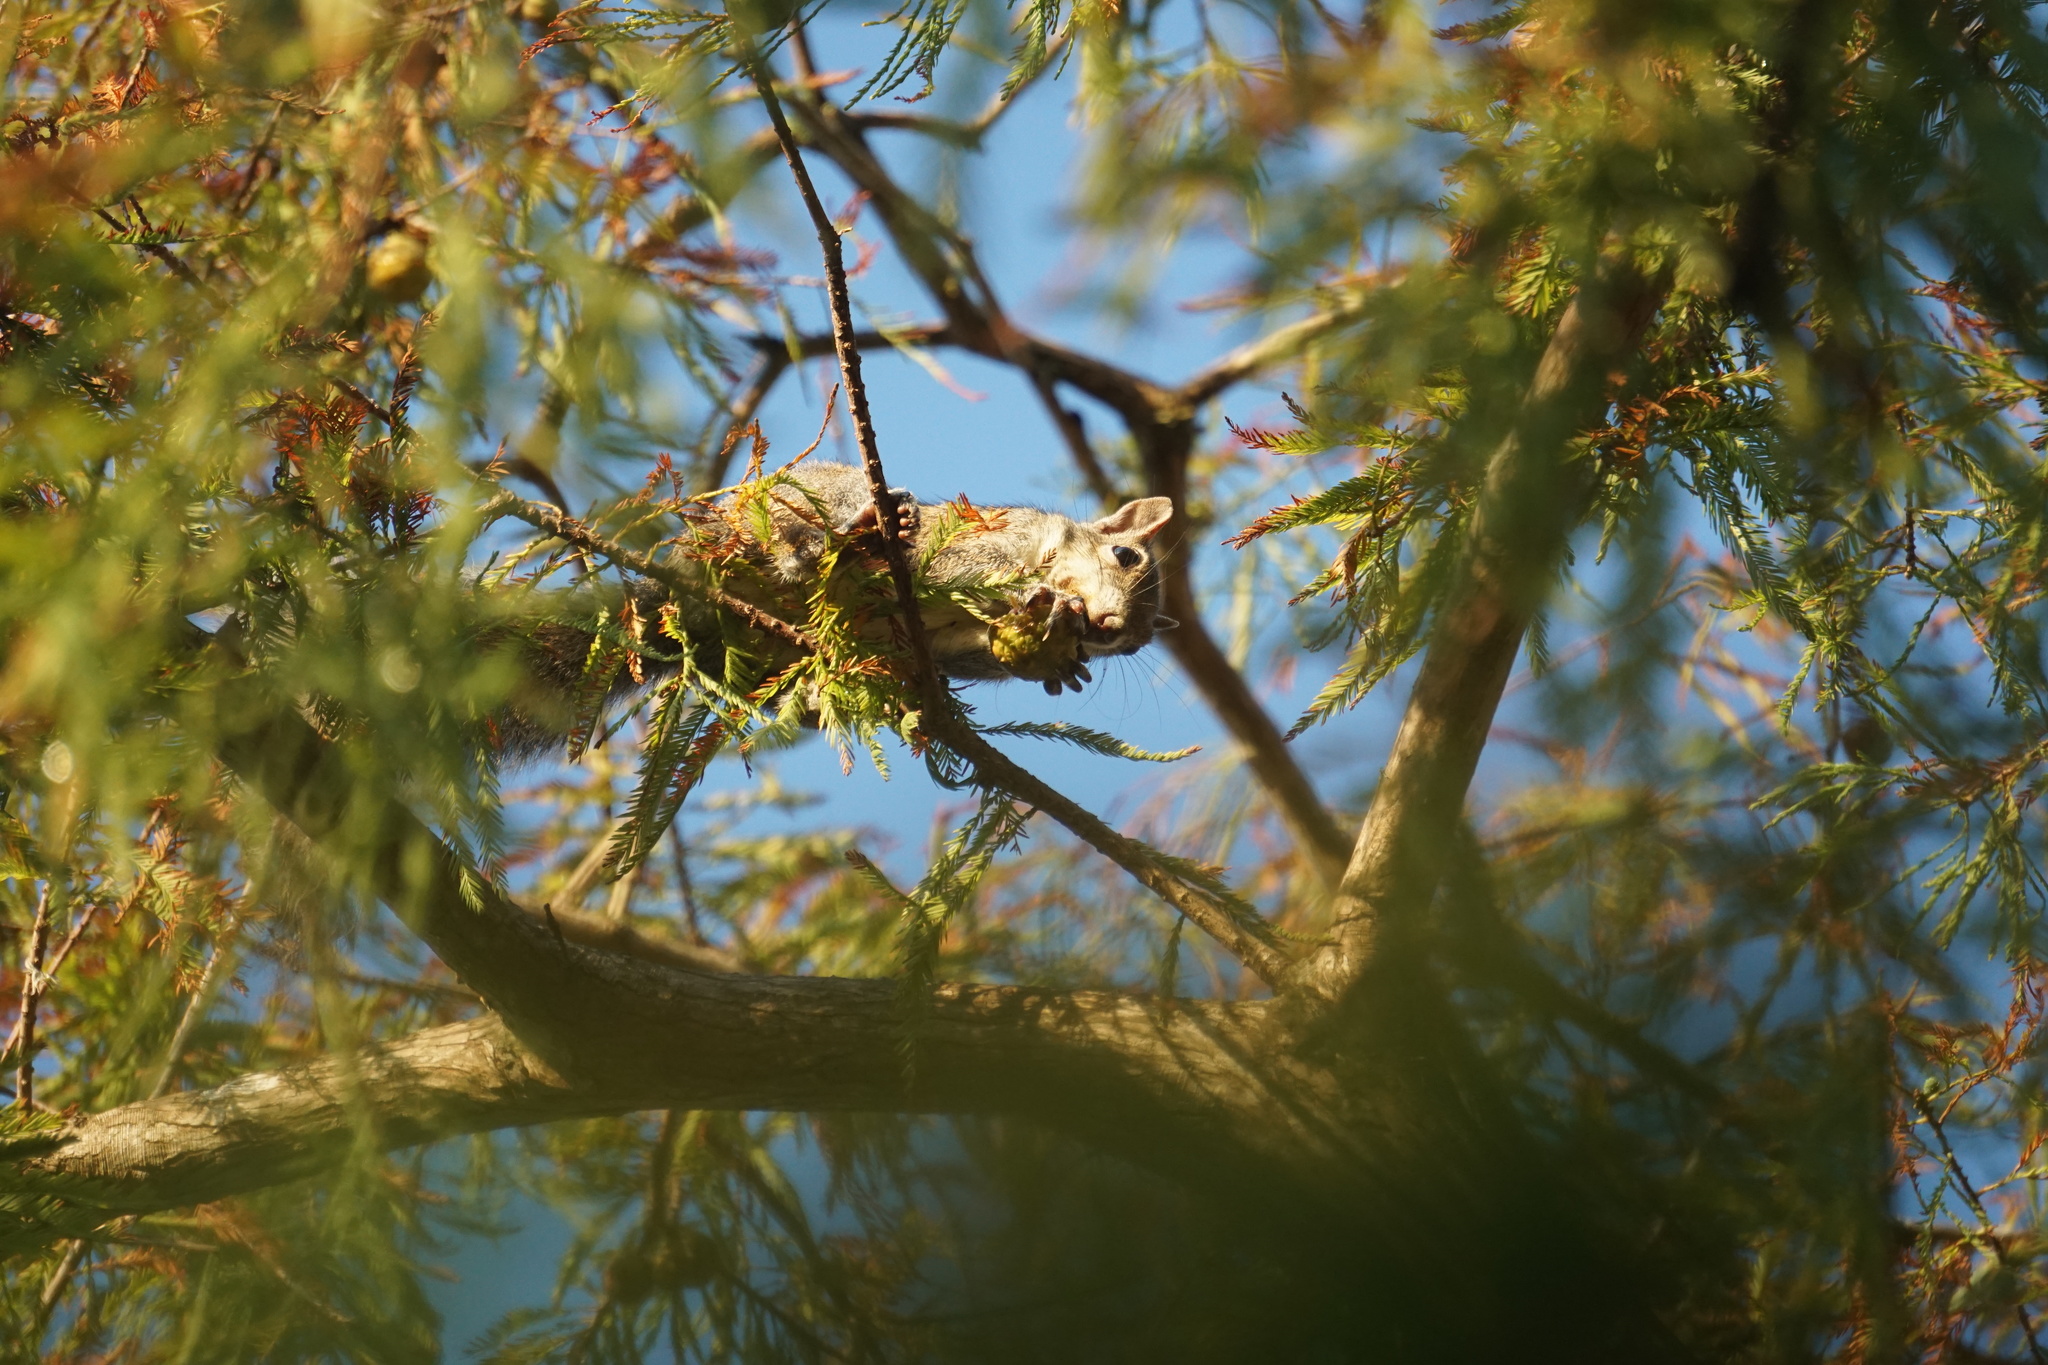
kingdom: Animalia
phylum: Chordata
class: Mammalia
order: Rodentia
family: Sciuridae
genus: Sciurus
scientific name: Sciurus carolinensis
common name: Eastern gray squirrel
